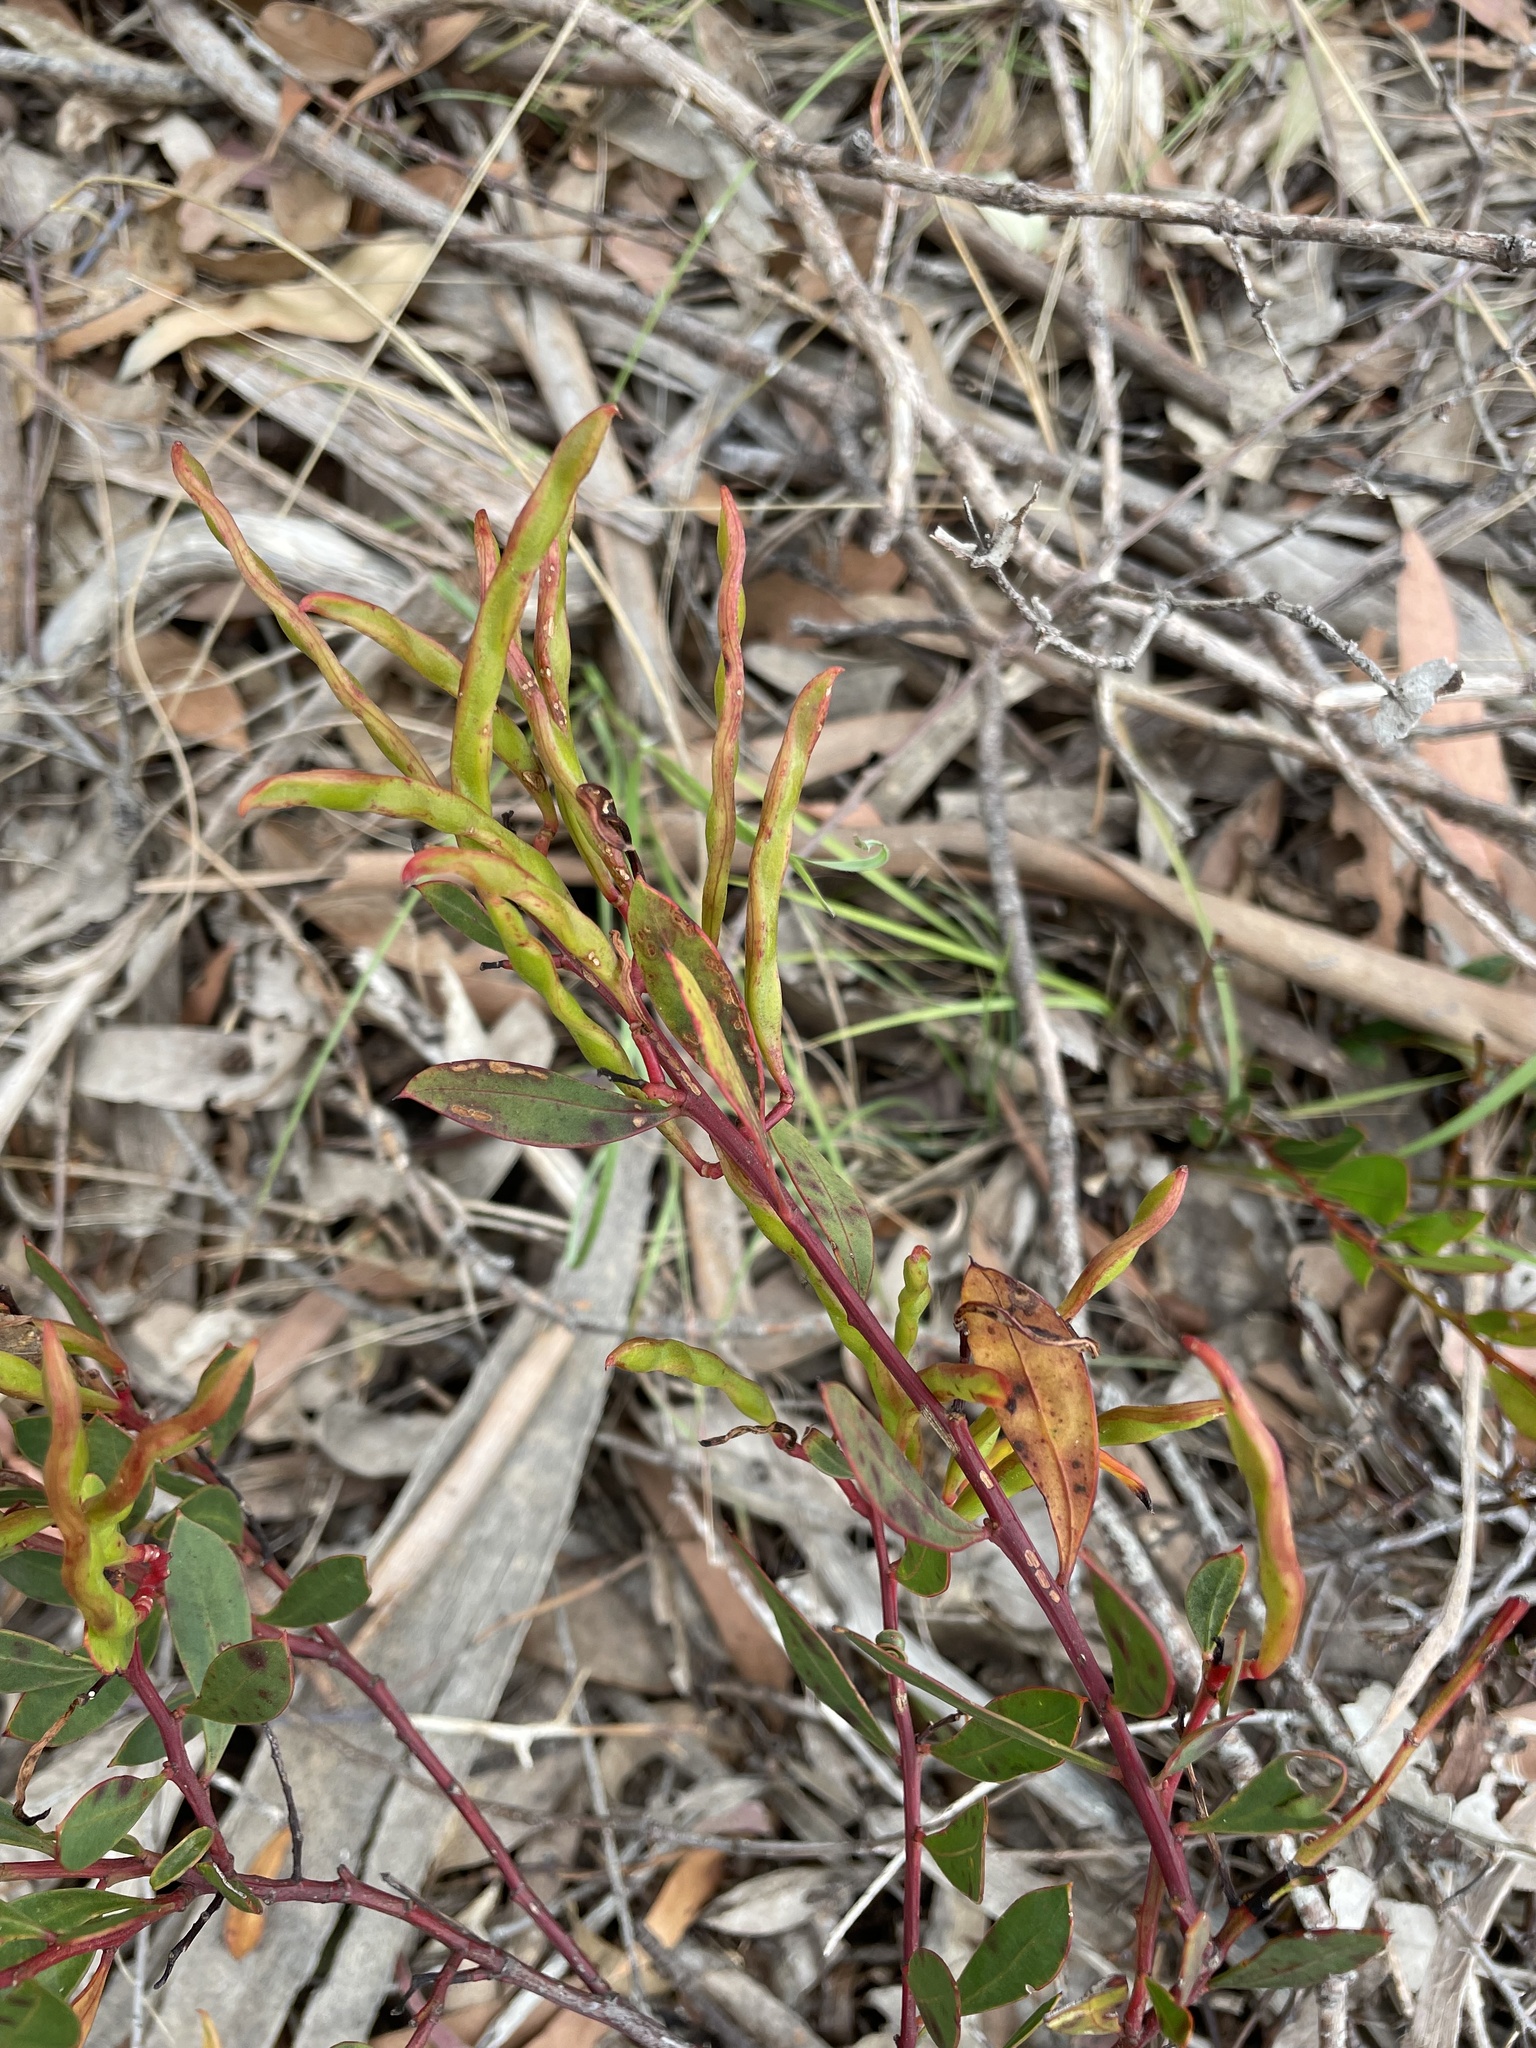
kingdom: Plantae
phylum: Tracheophyta
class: Magnoliopsida
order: Fabales
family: Fabaceae
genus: Acacia
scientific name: Acacia myrtifolia
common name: Myrtle wattle
